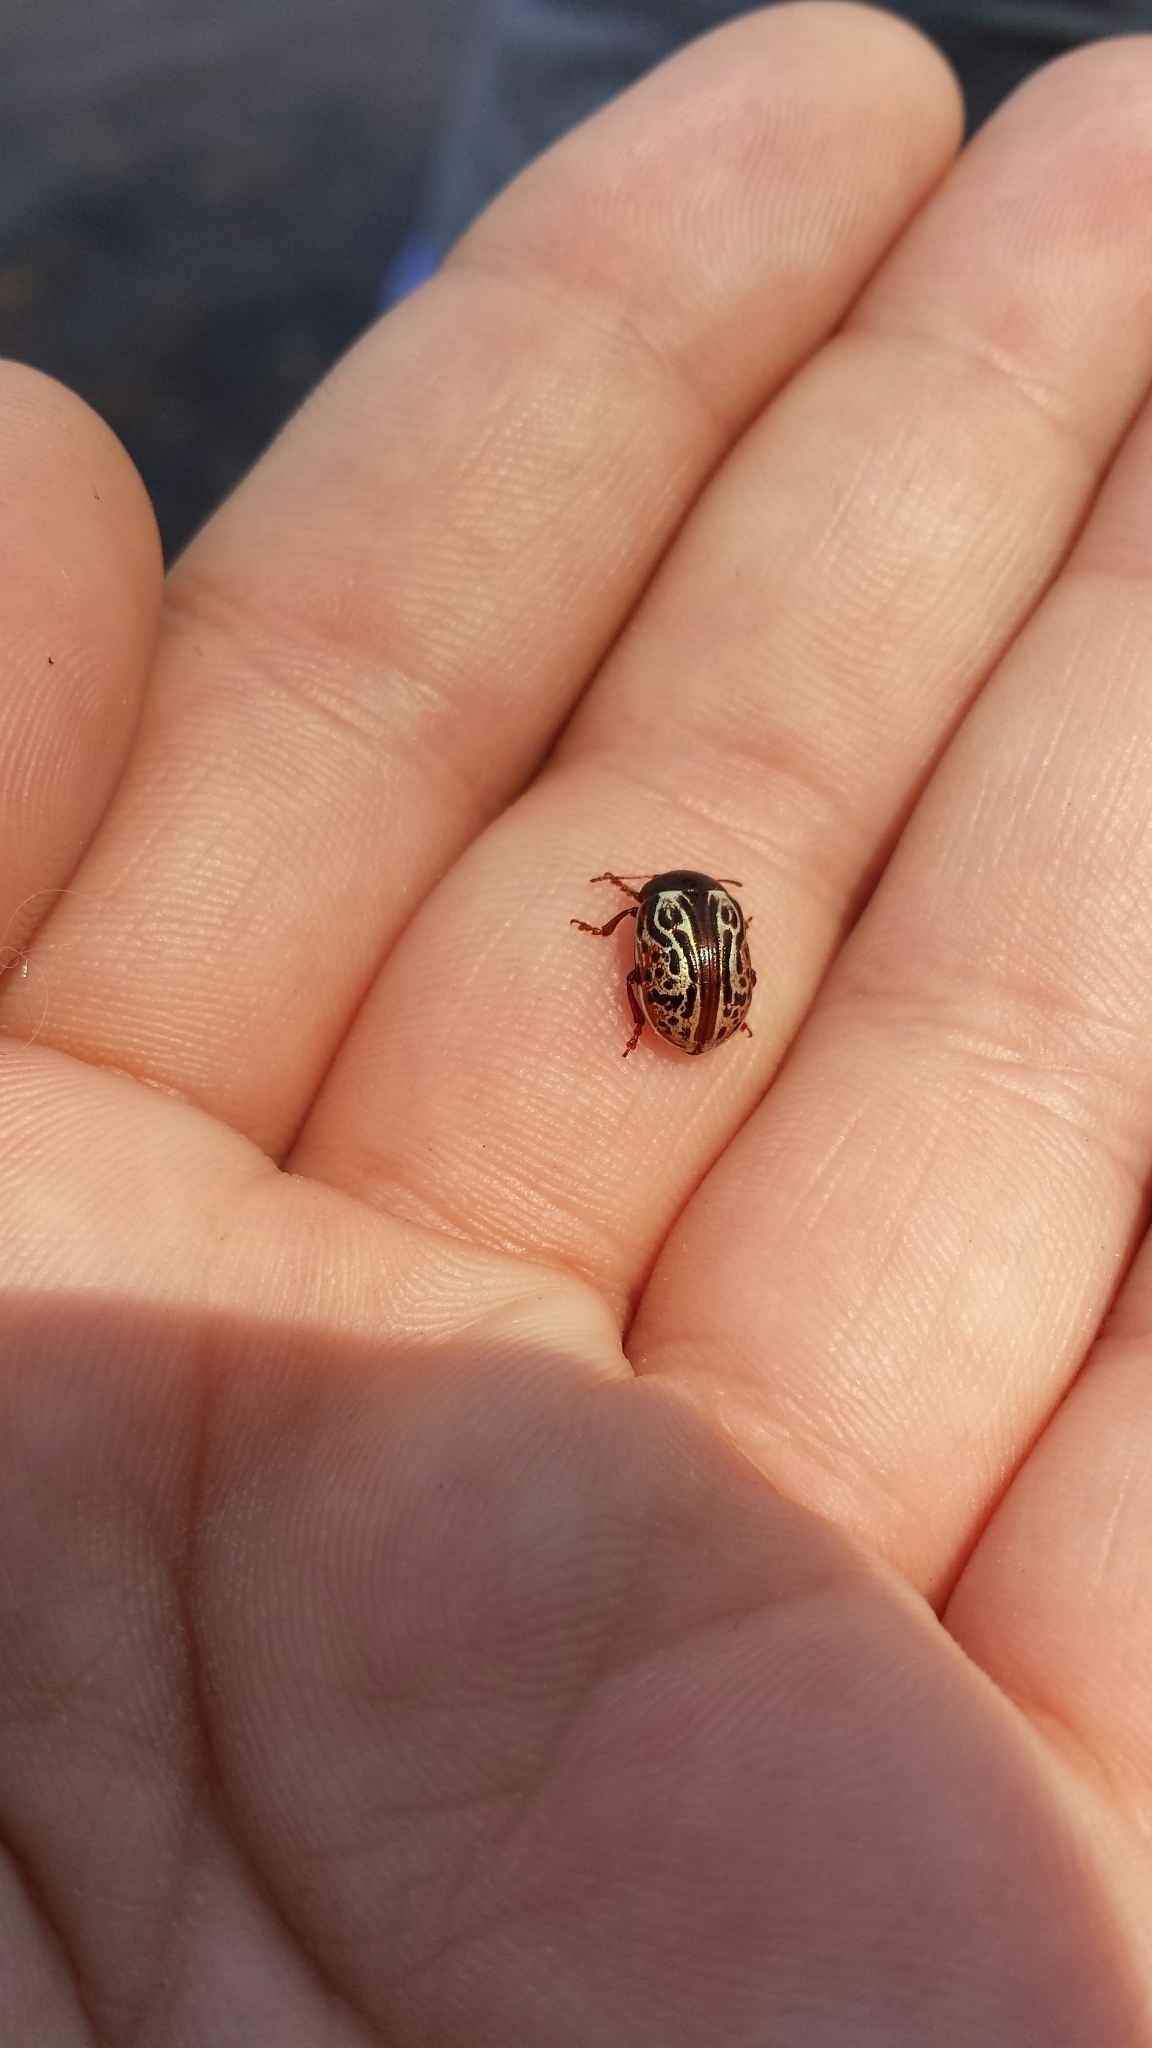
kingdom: Animalia
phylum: Arthropoda
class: Insecta
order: Coleoptera
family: Chrysomelidae
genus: Calligrapha
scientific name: Calligrapha alni
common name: Russet alder leaf beetle
